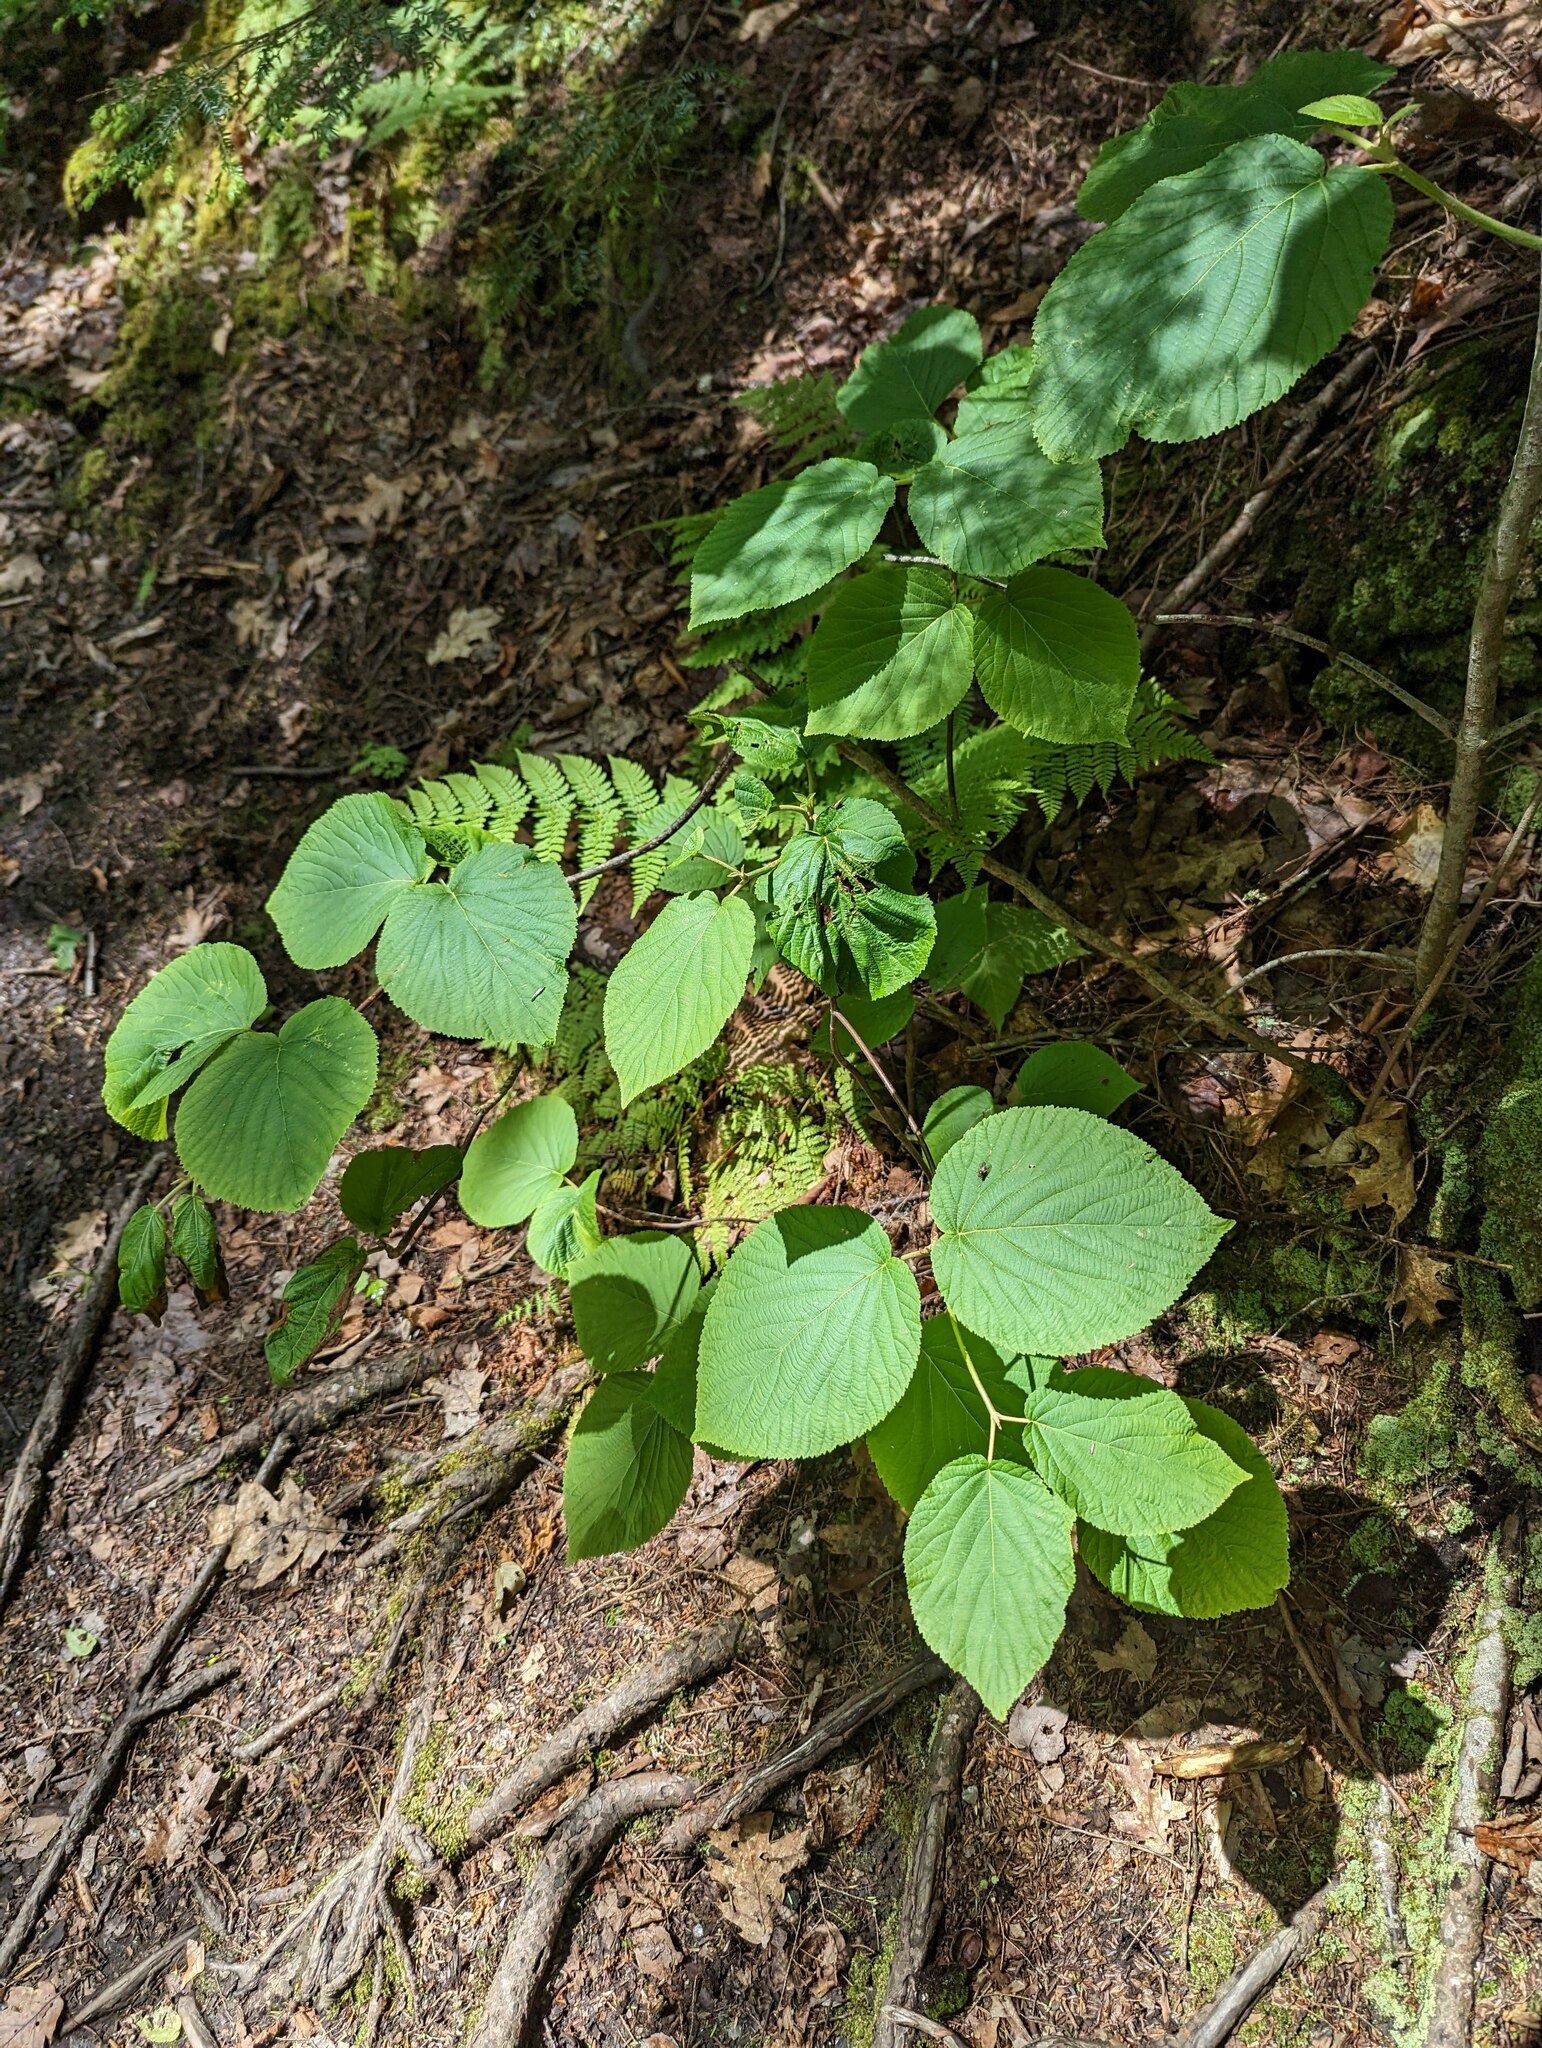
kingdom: Plantae
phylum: Tracheophyta
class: Magnoliopsida
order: Dipsacales
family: Viburnaceae
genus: Viburnum
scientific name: Viburnum lantanoides
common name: Hobblebush
